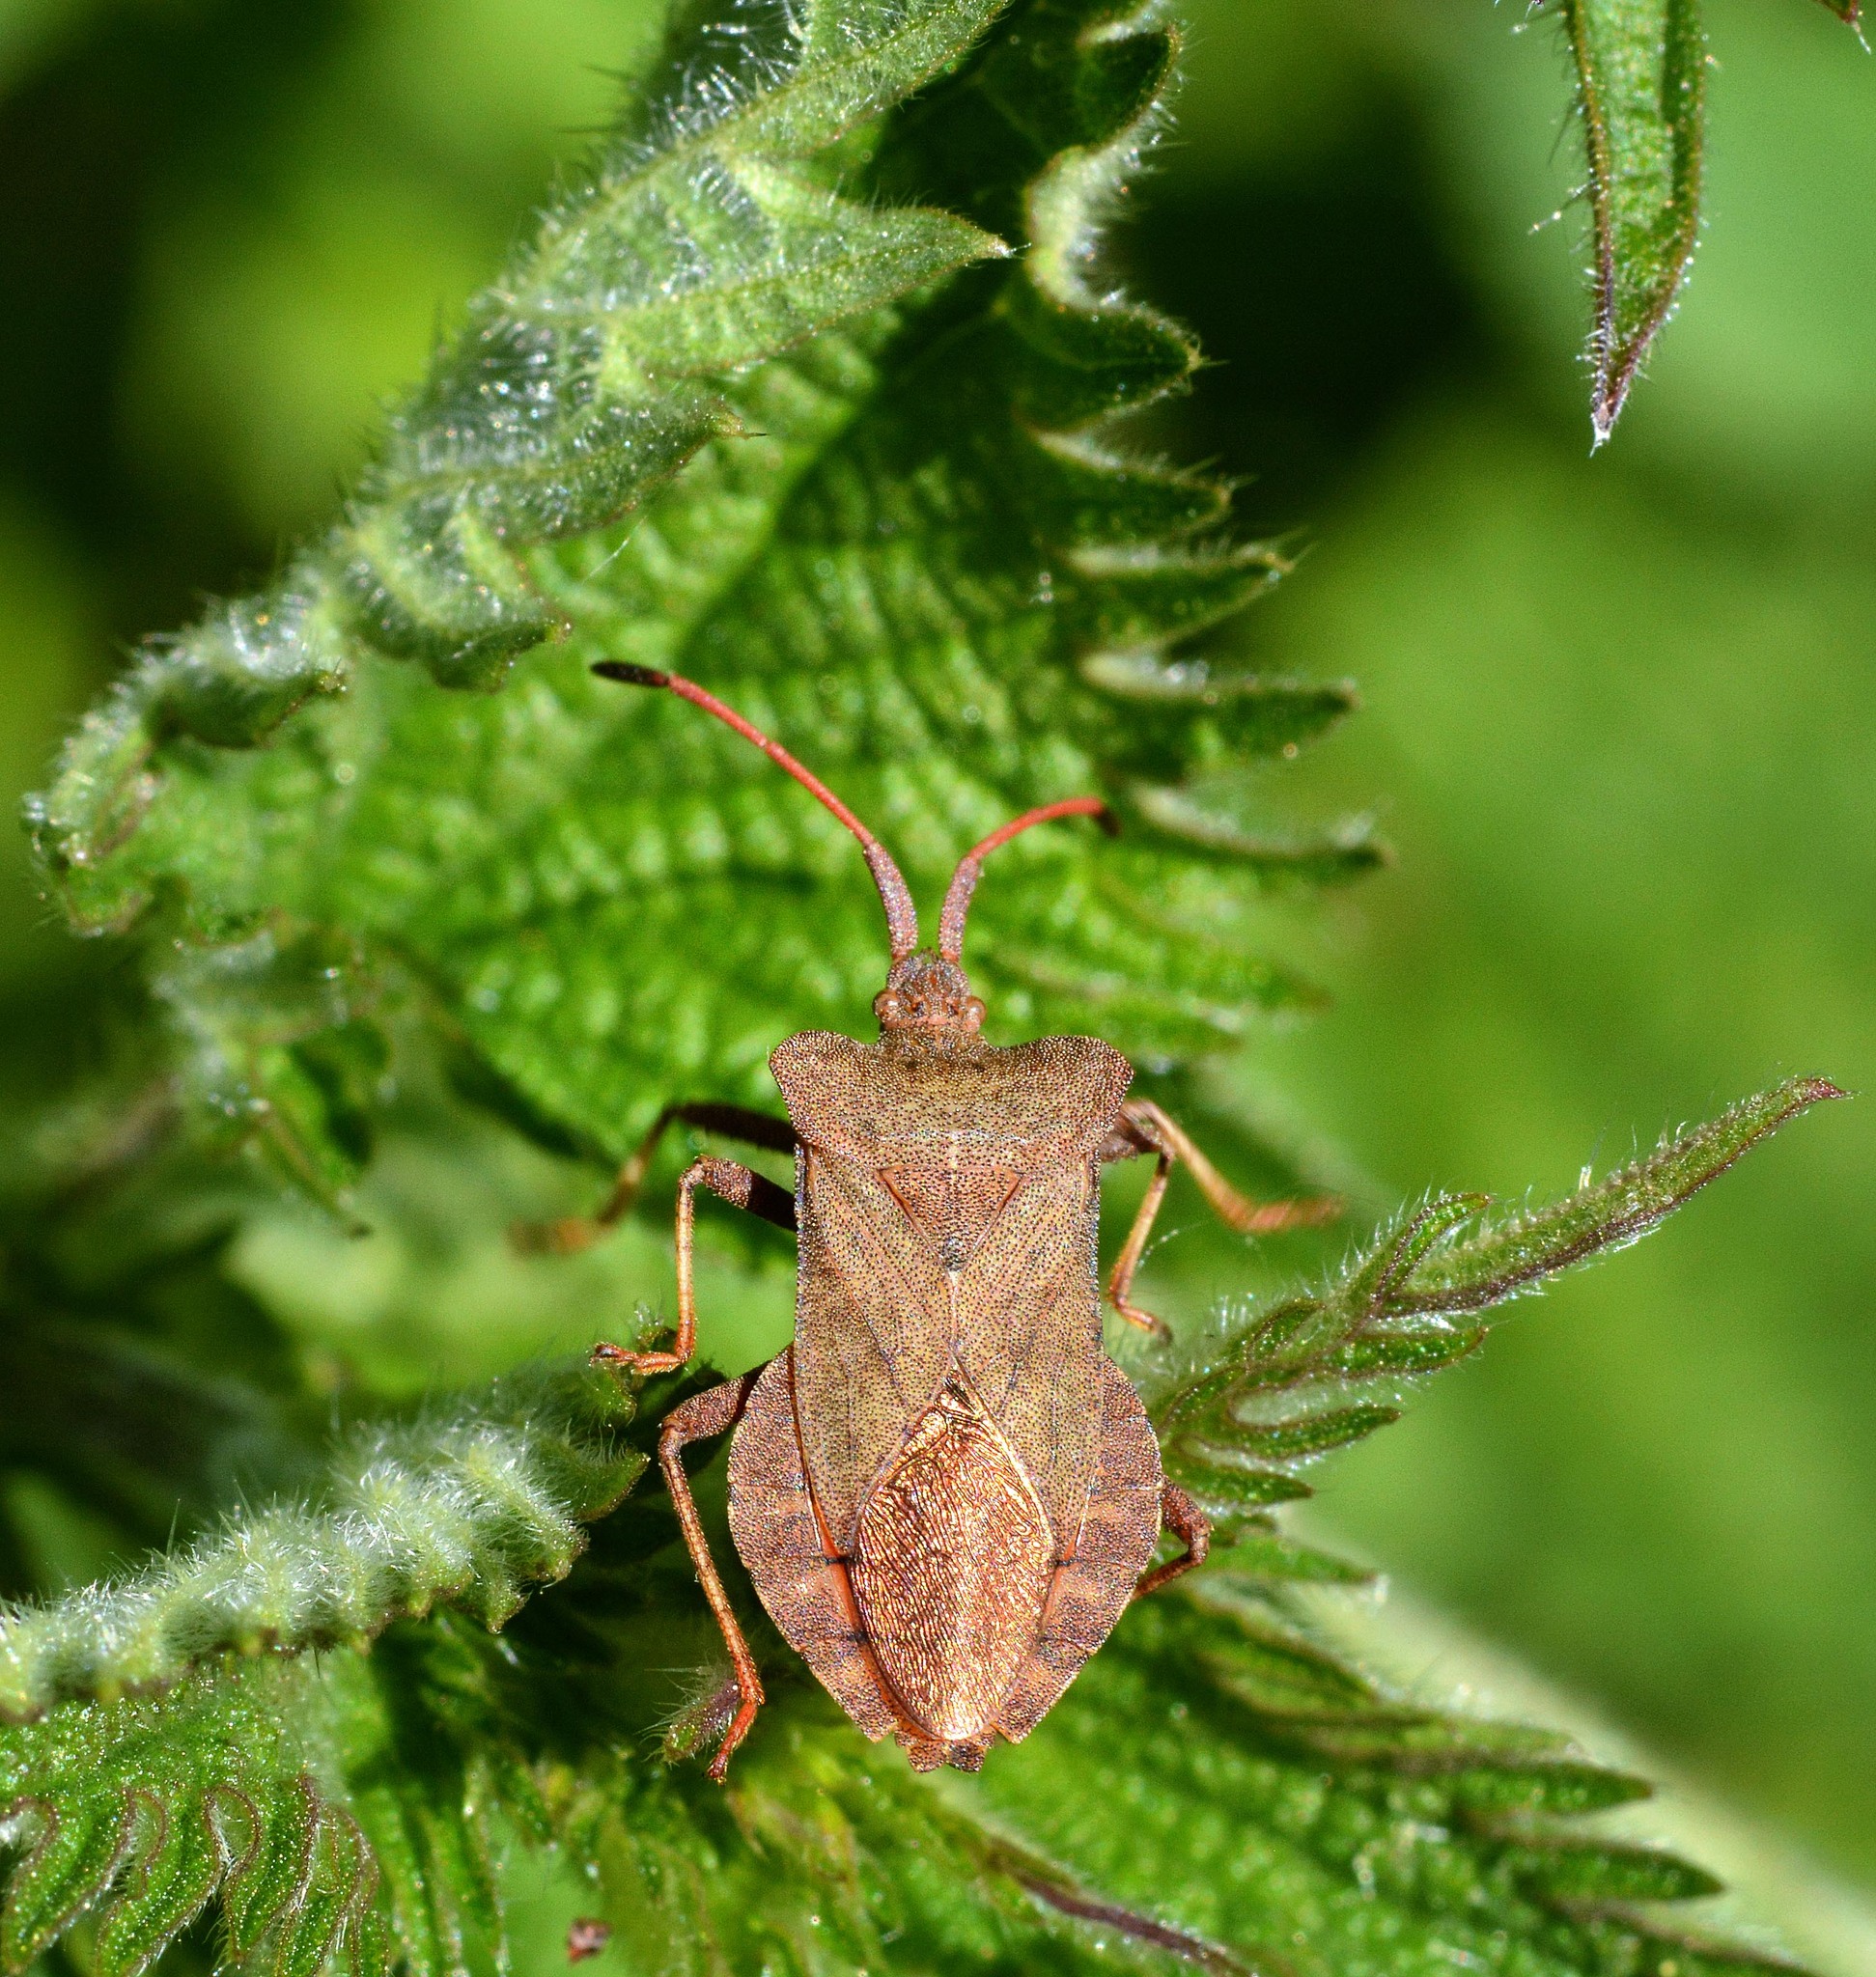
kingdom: Animalia
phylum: Arthropoda
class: Insecta
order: Hemiptera
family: Coreidae
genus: Coreus
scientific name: Coreus marginatus
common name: Dock bug
